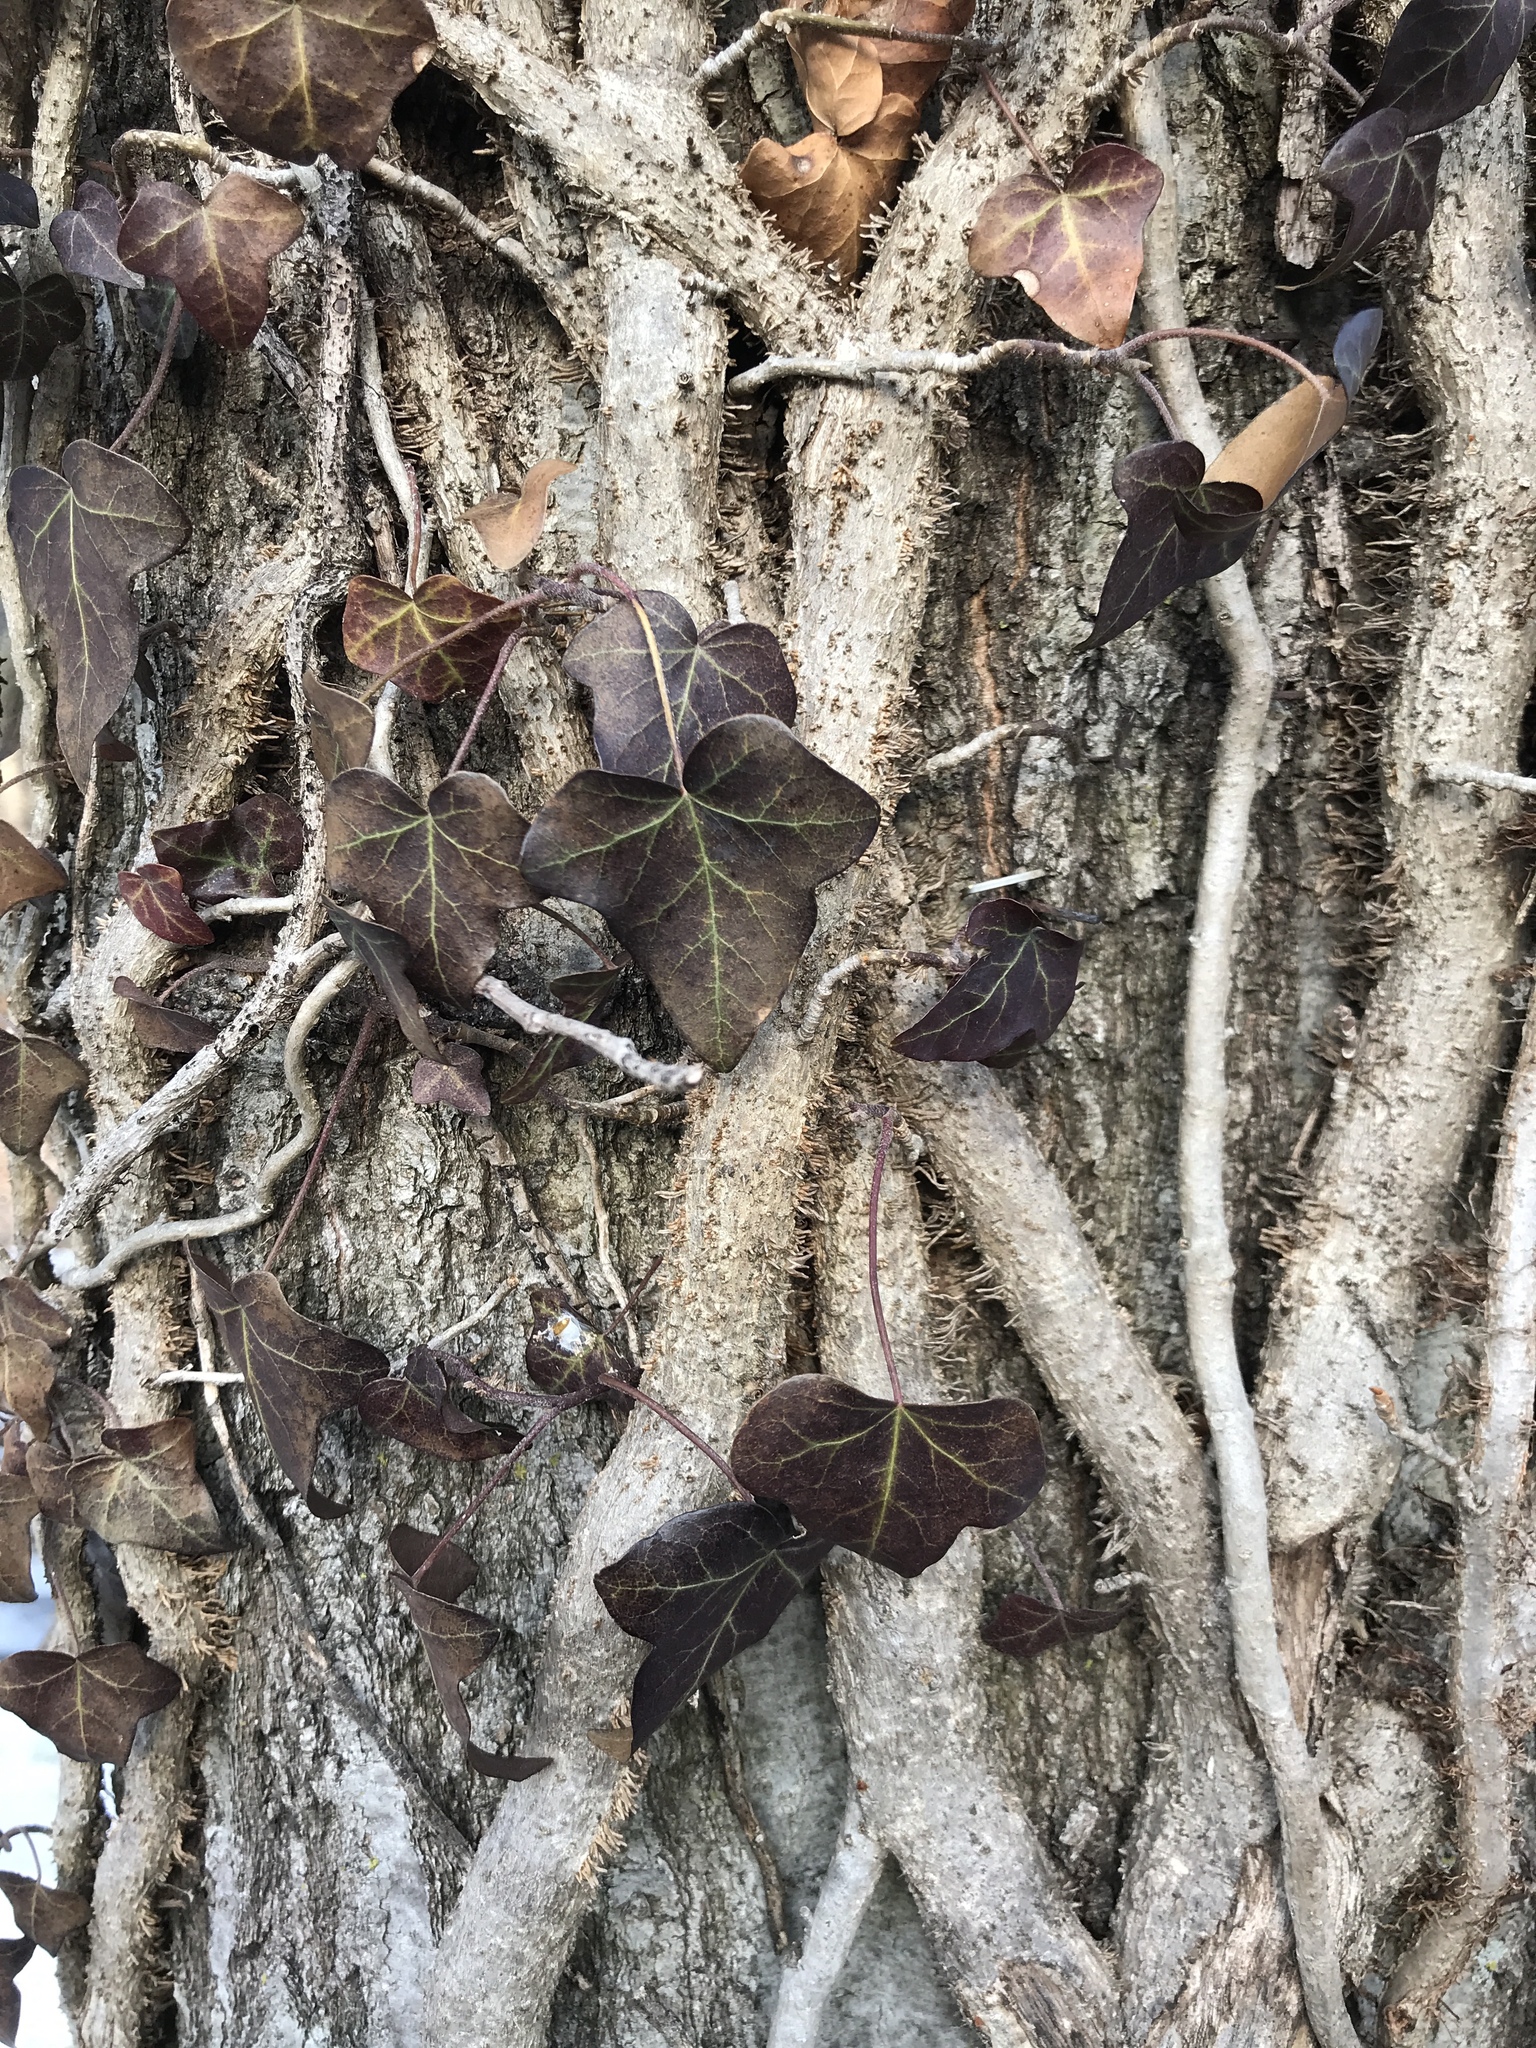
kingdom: Plantae
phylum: Tracheophyta
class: Magnoliopsida
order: Apiales
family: Araliaceae
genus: Hedera
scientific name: Hedera helix
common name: Ivy
